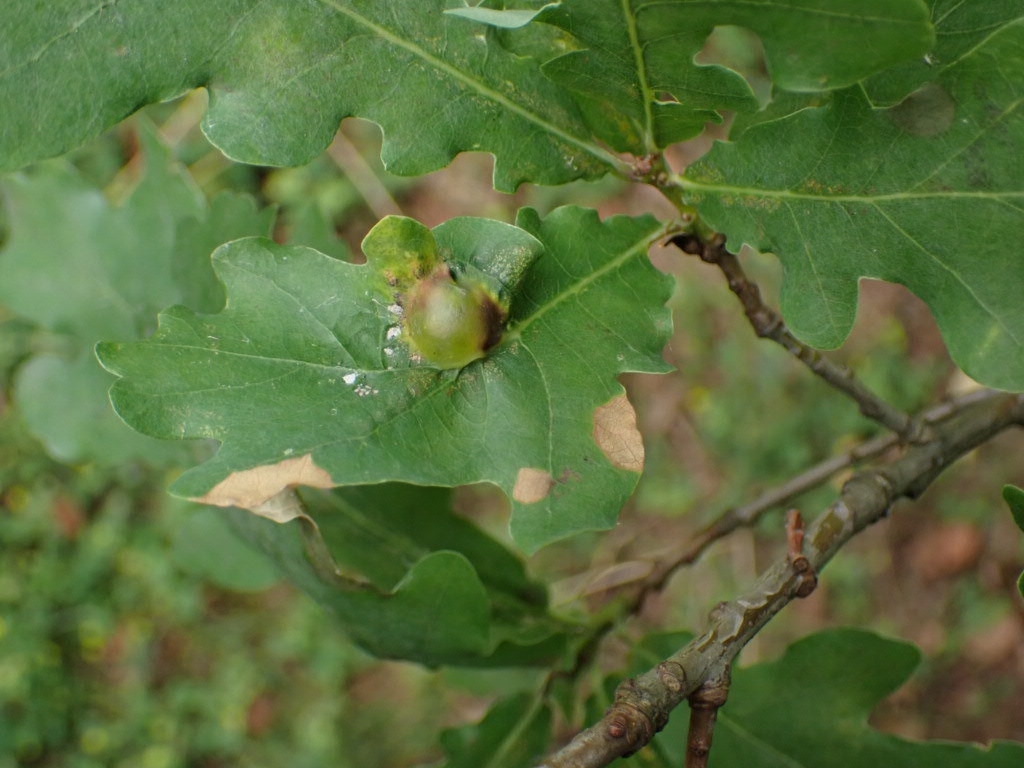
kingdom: Animalia
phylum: Arthropoda
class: Insecta
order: Hymenoptera
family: Cynipidae
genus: Andricus
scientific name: Andricus curvator
